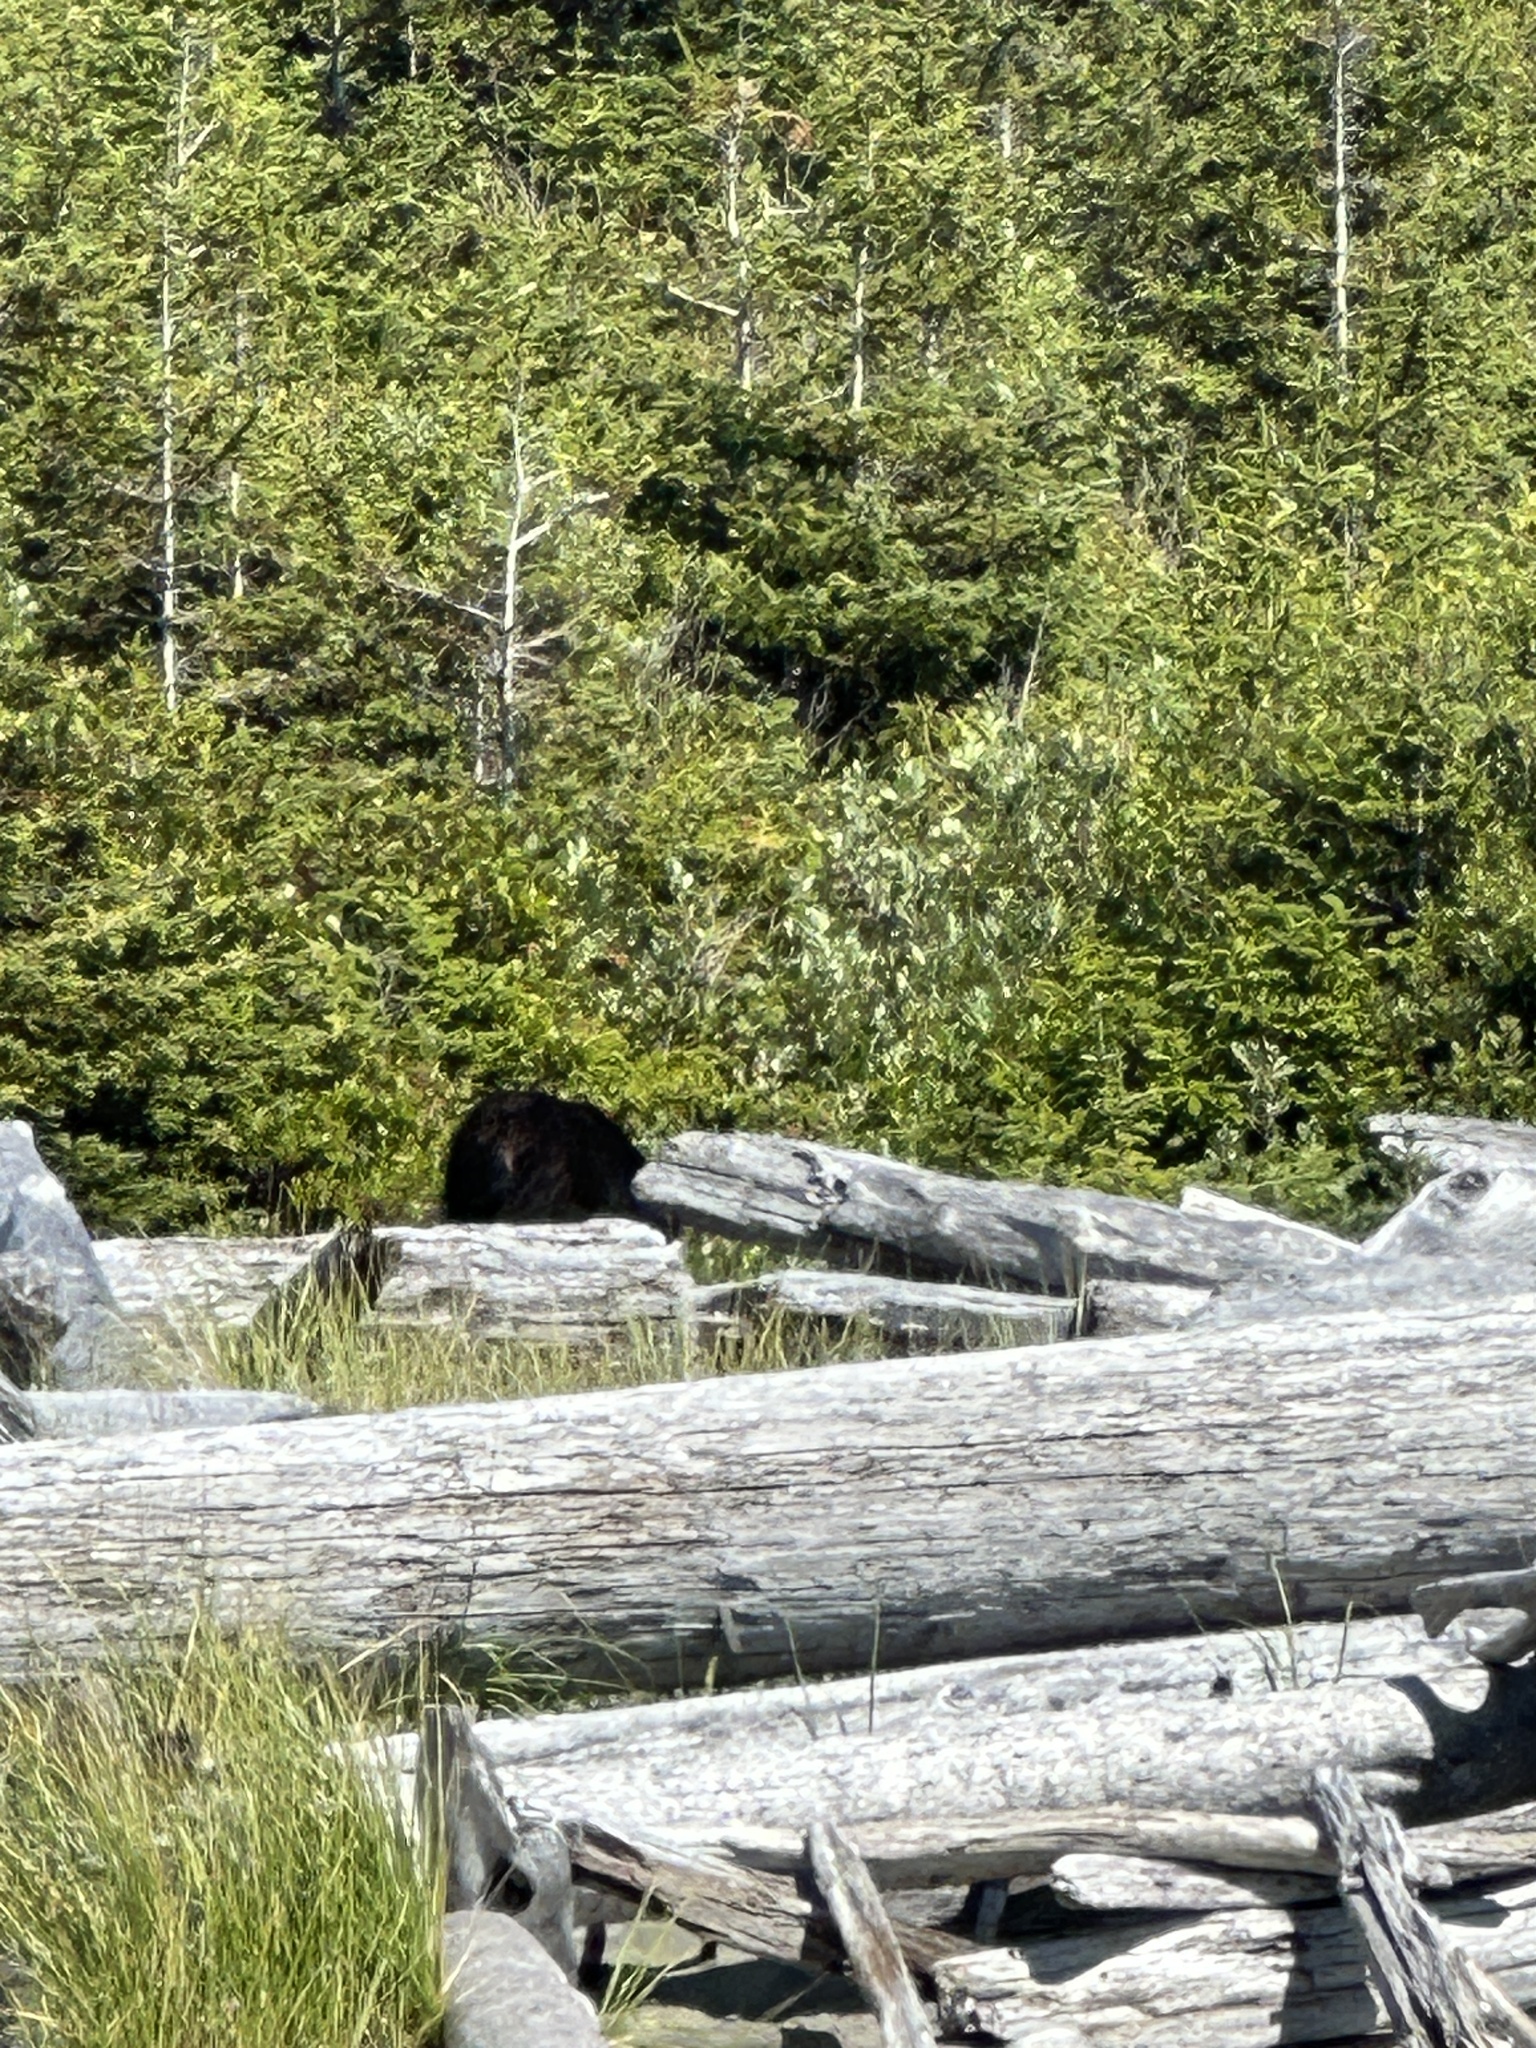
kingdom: Animalia
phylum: Chordata
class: Mammalia
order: Carnivora
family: Ursidae
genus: Ursus
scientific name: Ursus americanus
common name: American black bear
